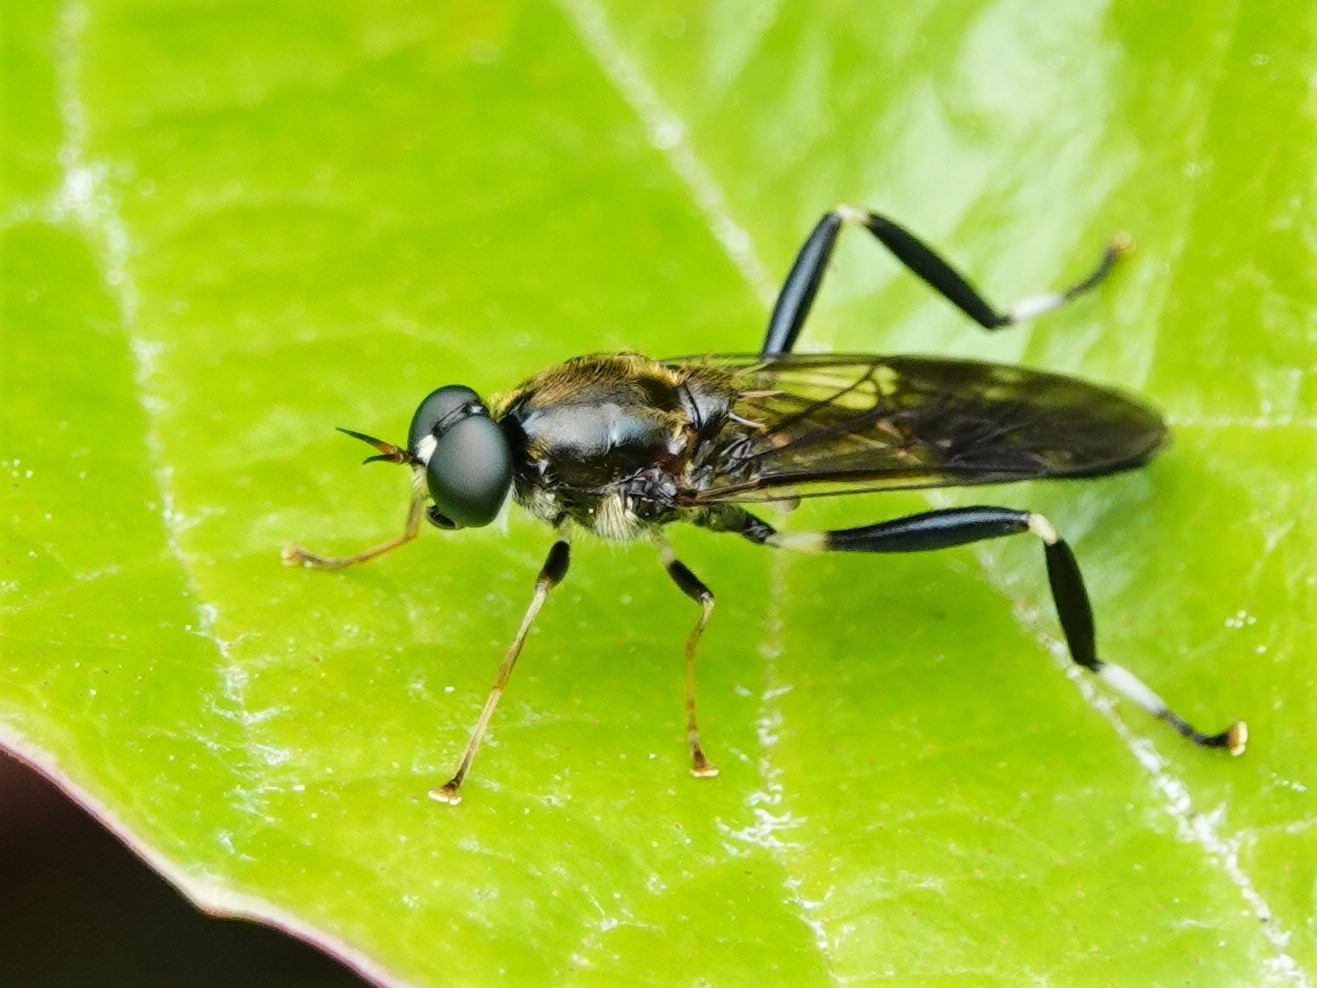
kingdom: Animalia
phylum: Arthropoda
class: Insecta
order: Diptera
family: Stratiomyidae
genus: Exaireta
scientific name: Exaireta spinigera
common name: Blue soldier fly
